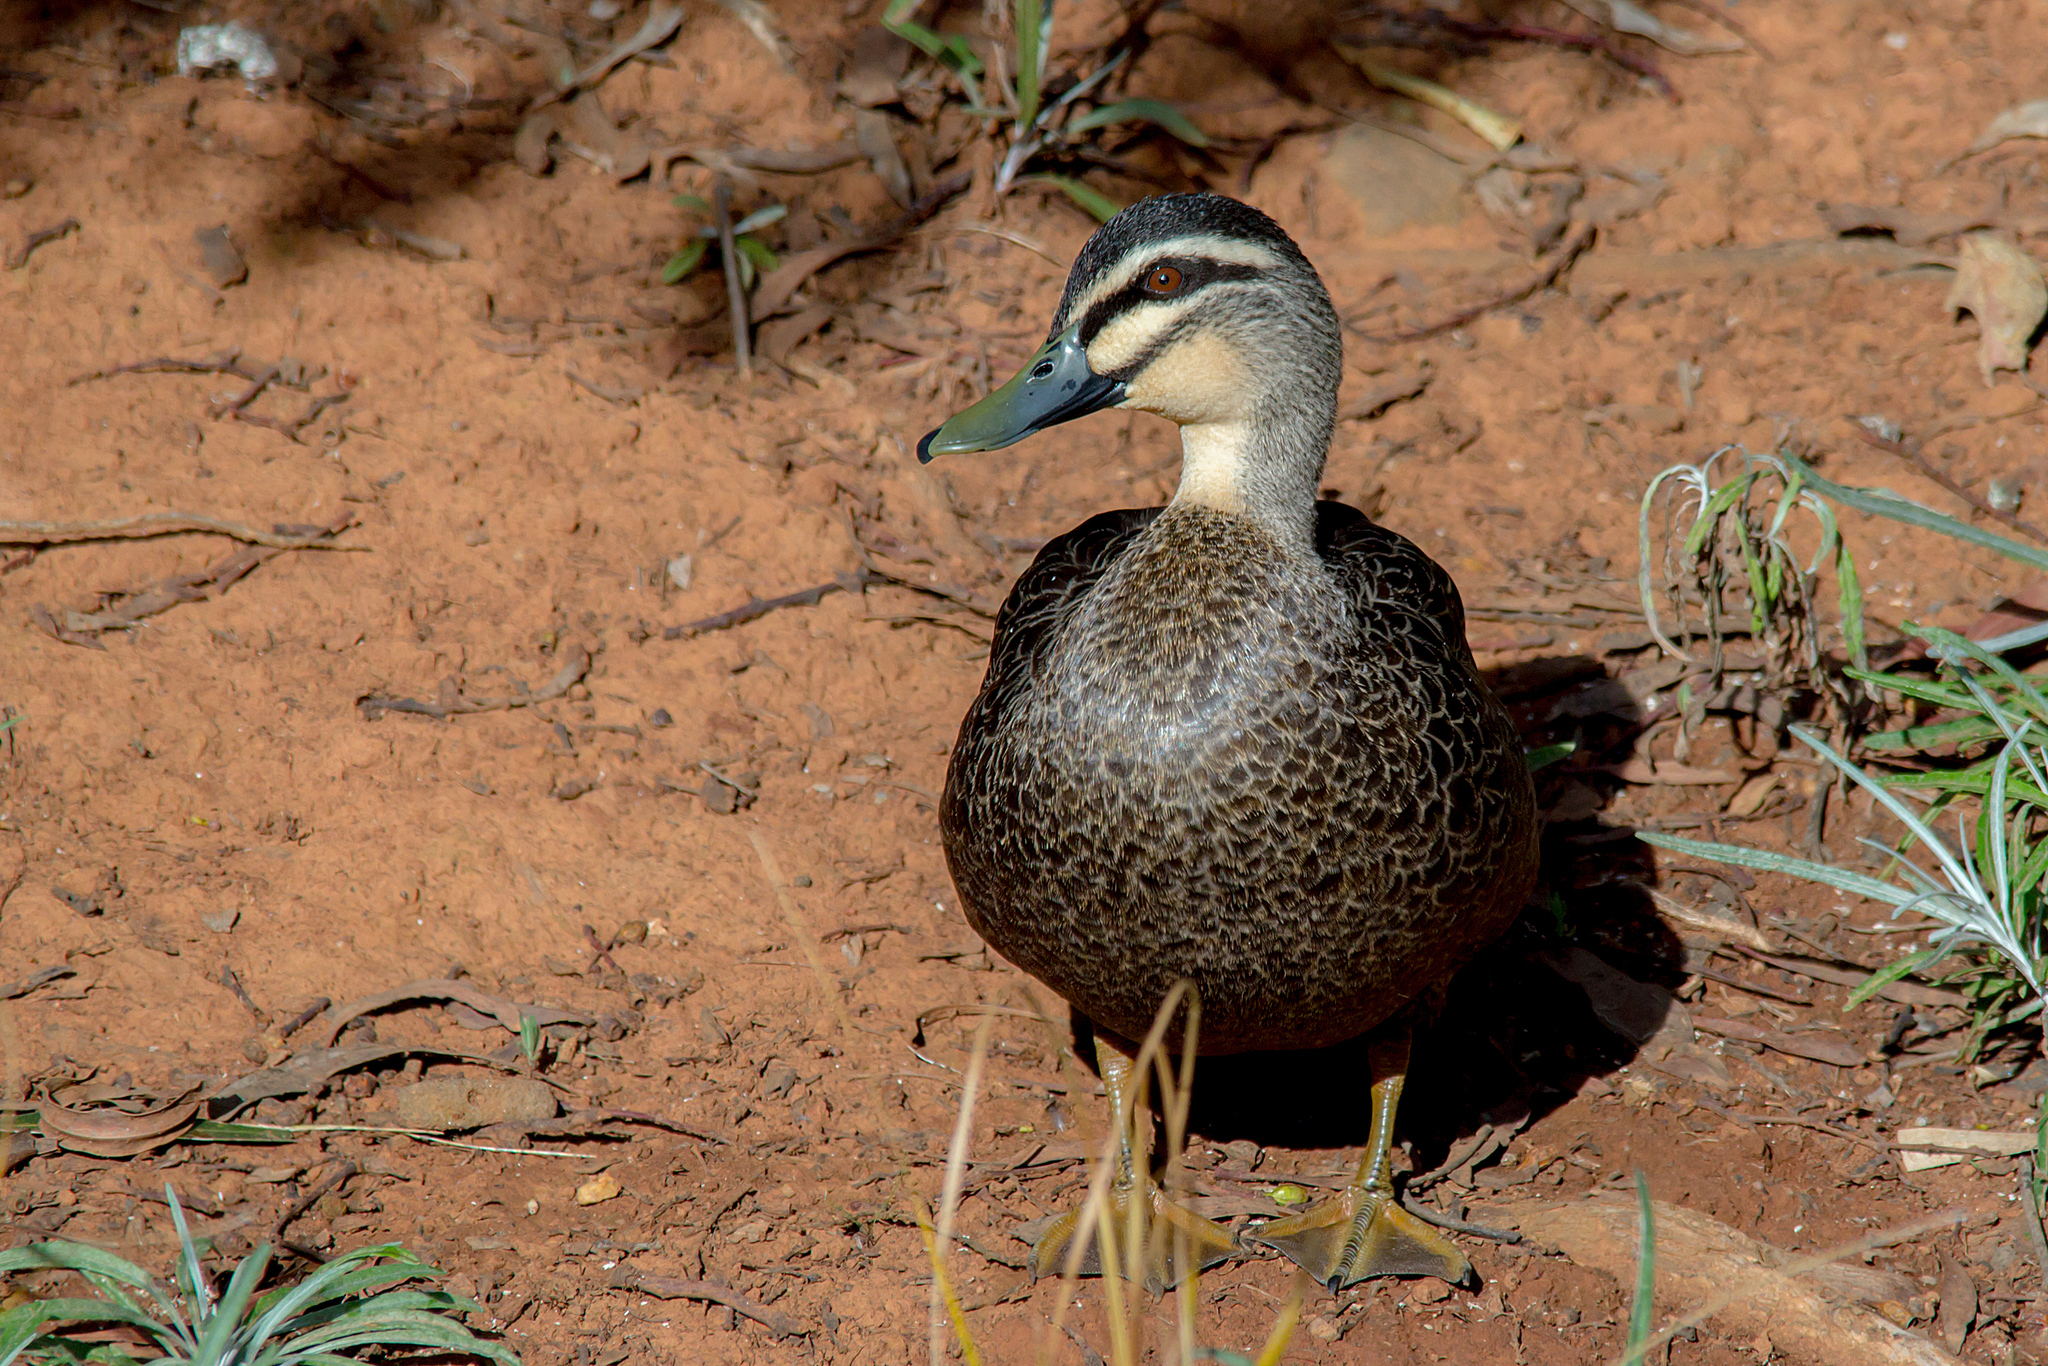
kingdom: Animalia
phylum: Chordata
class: Aves
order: Anseriformes
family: Anatidae
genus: Anas
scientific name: Anas superciliosa
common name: Pacific black duck
